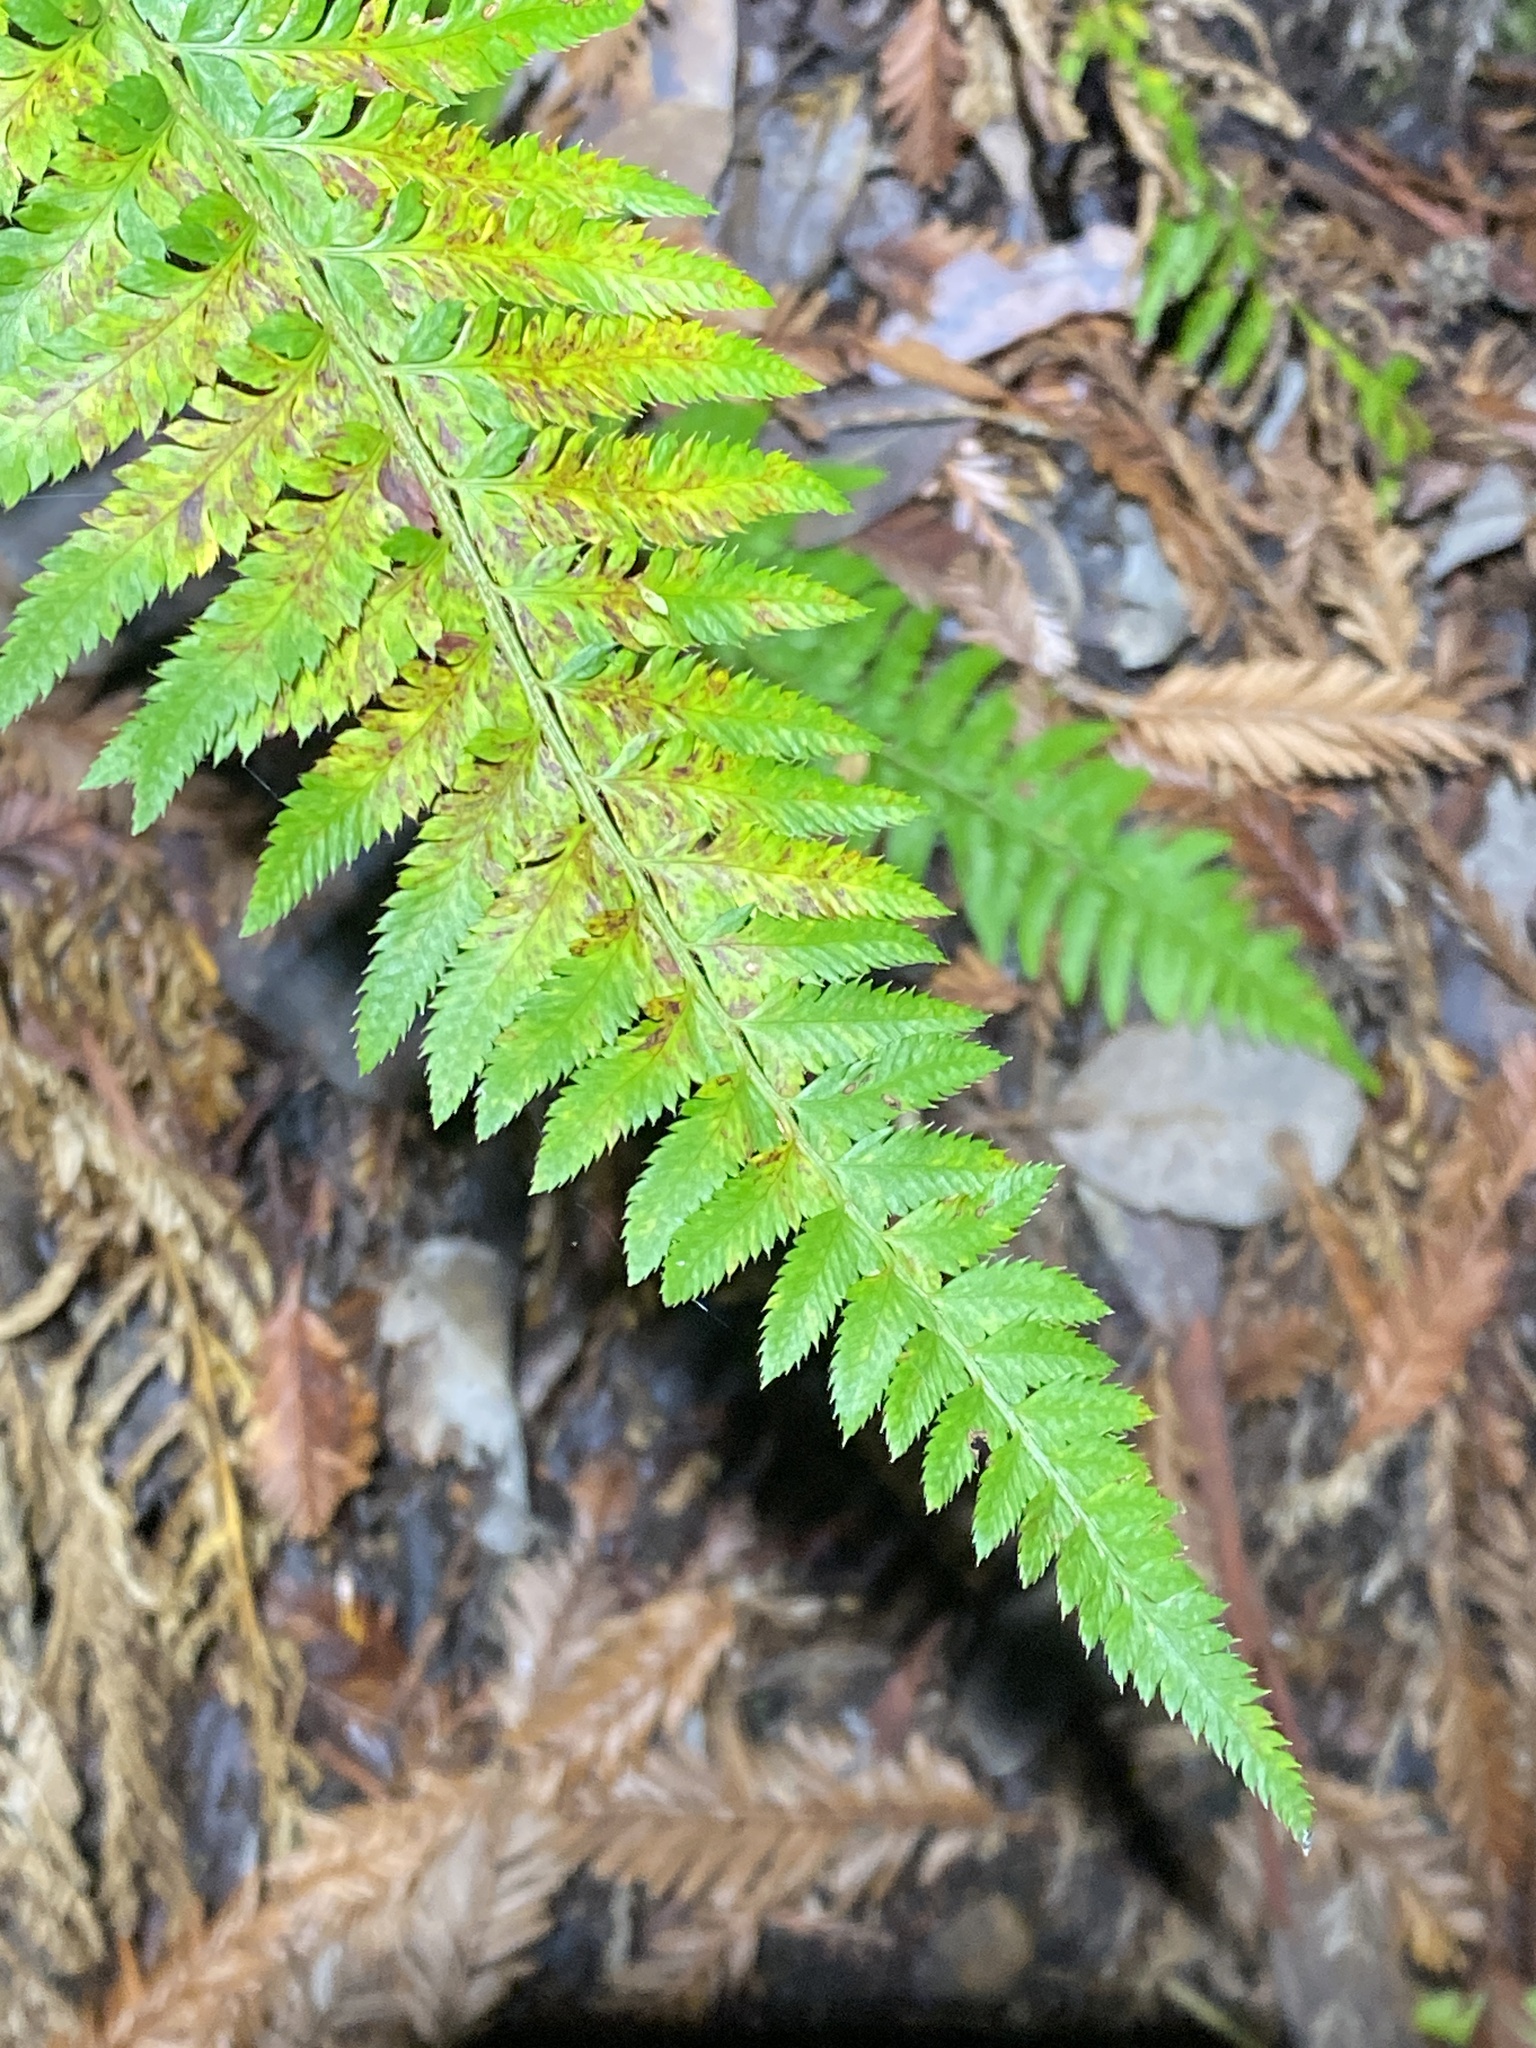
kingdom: Plantae
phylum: Tracheophyta
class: Polypodiopsida
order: Polypodiales
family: Dryopteridaceae
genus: Polystichum
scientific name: Polystichum californicum
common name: California sword fern
